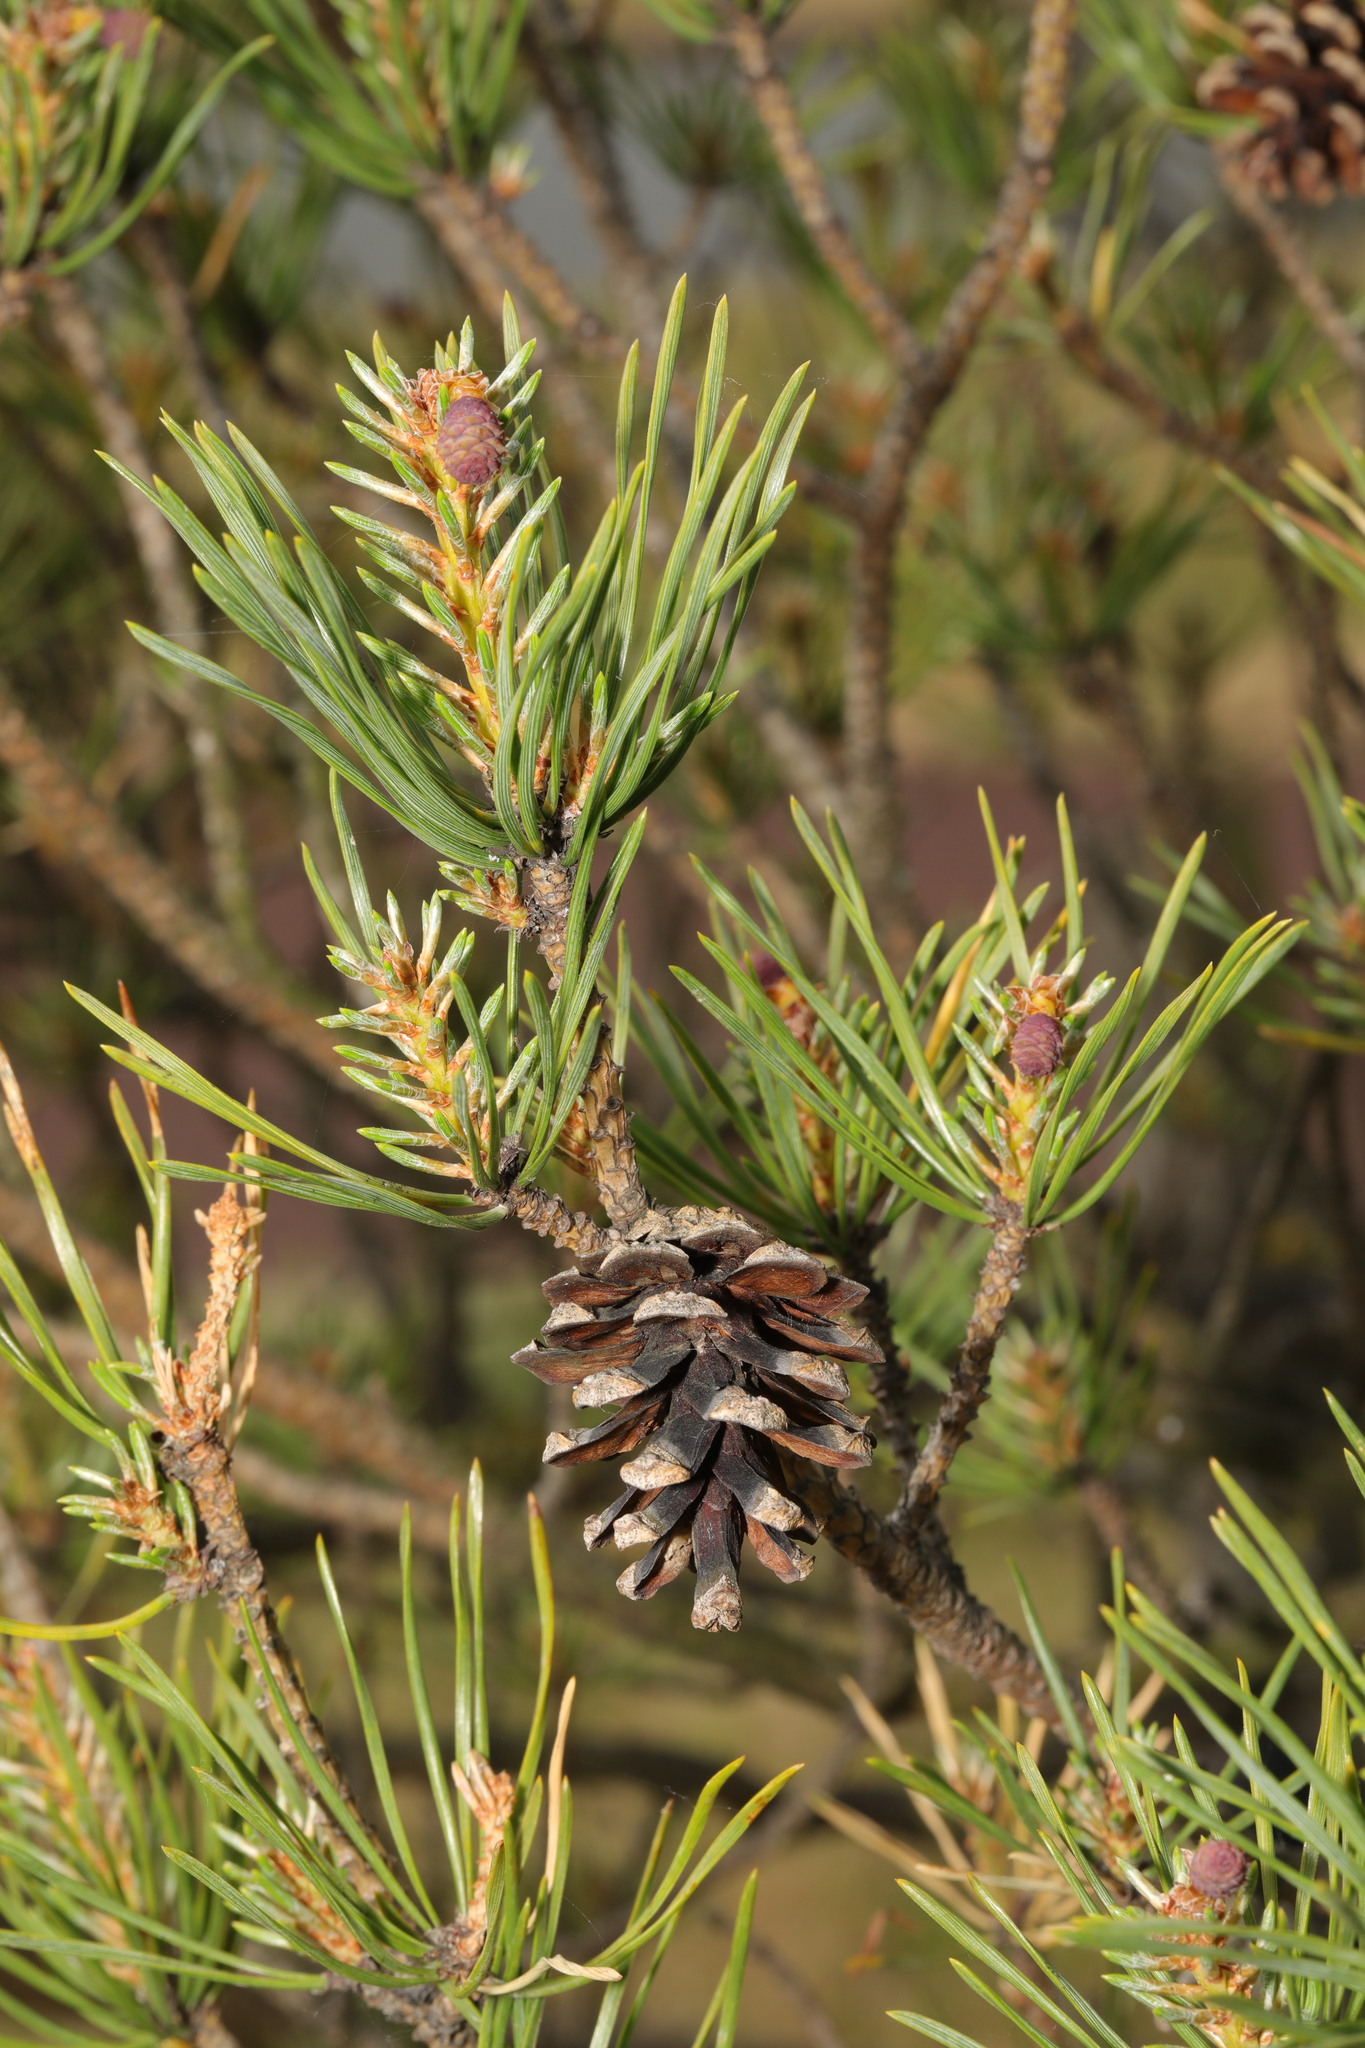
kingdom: Plantae
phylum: Tracheophyta
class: Pinopsida
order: Pinales
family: Pinaceae
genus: Pinus
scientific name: Pinus sylvestris
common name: Scots pine
